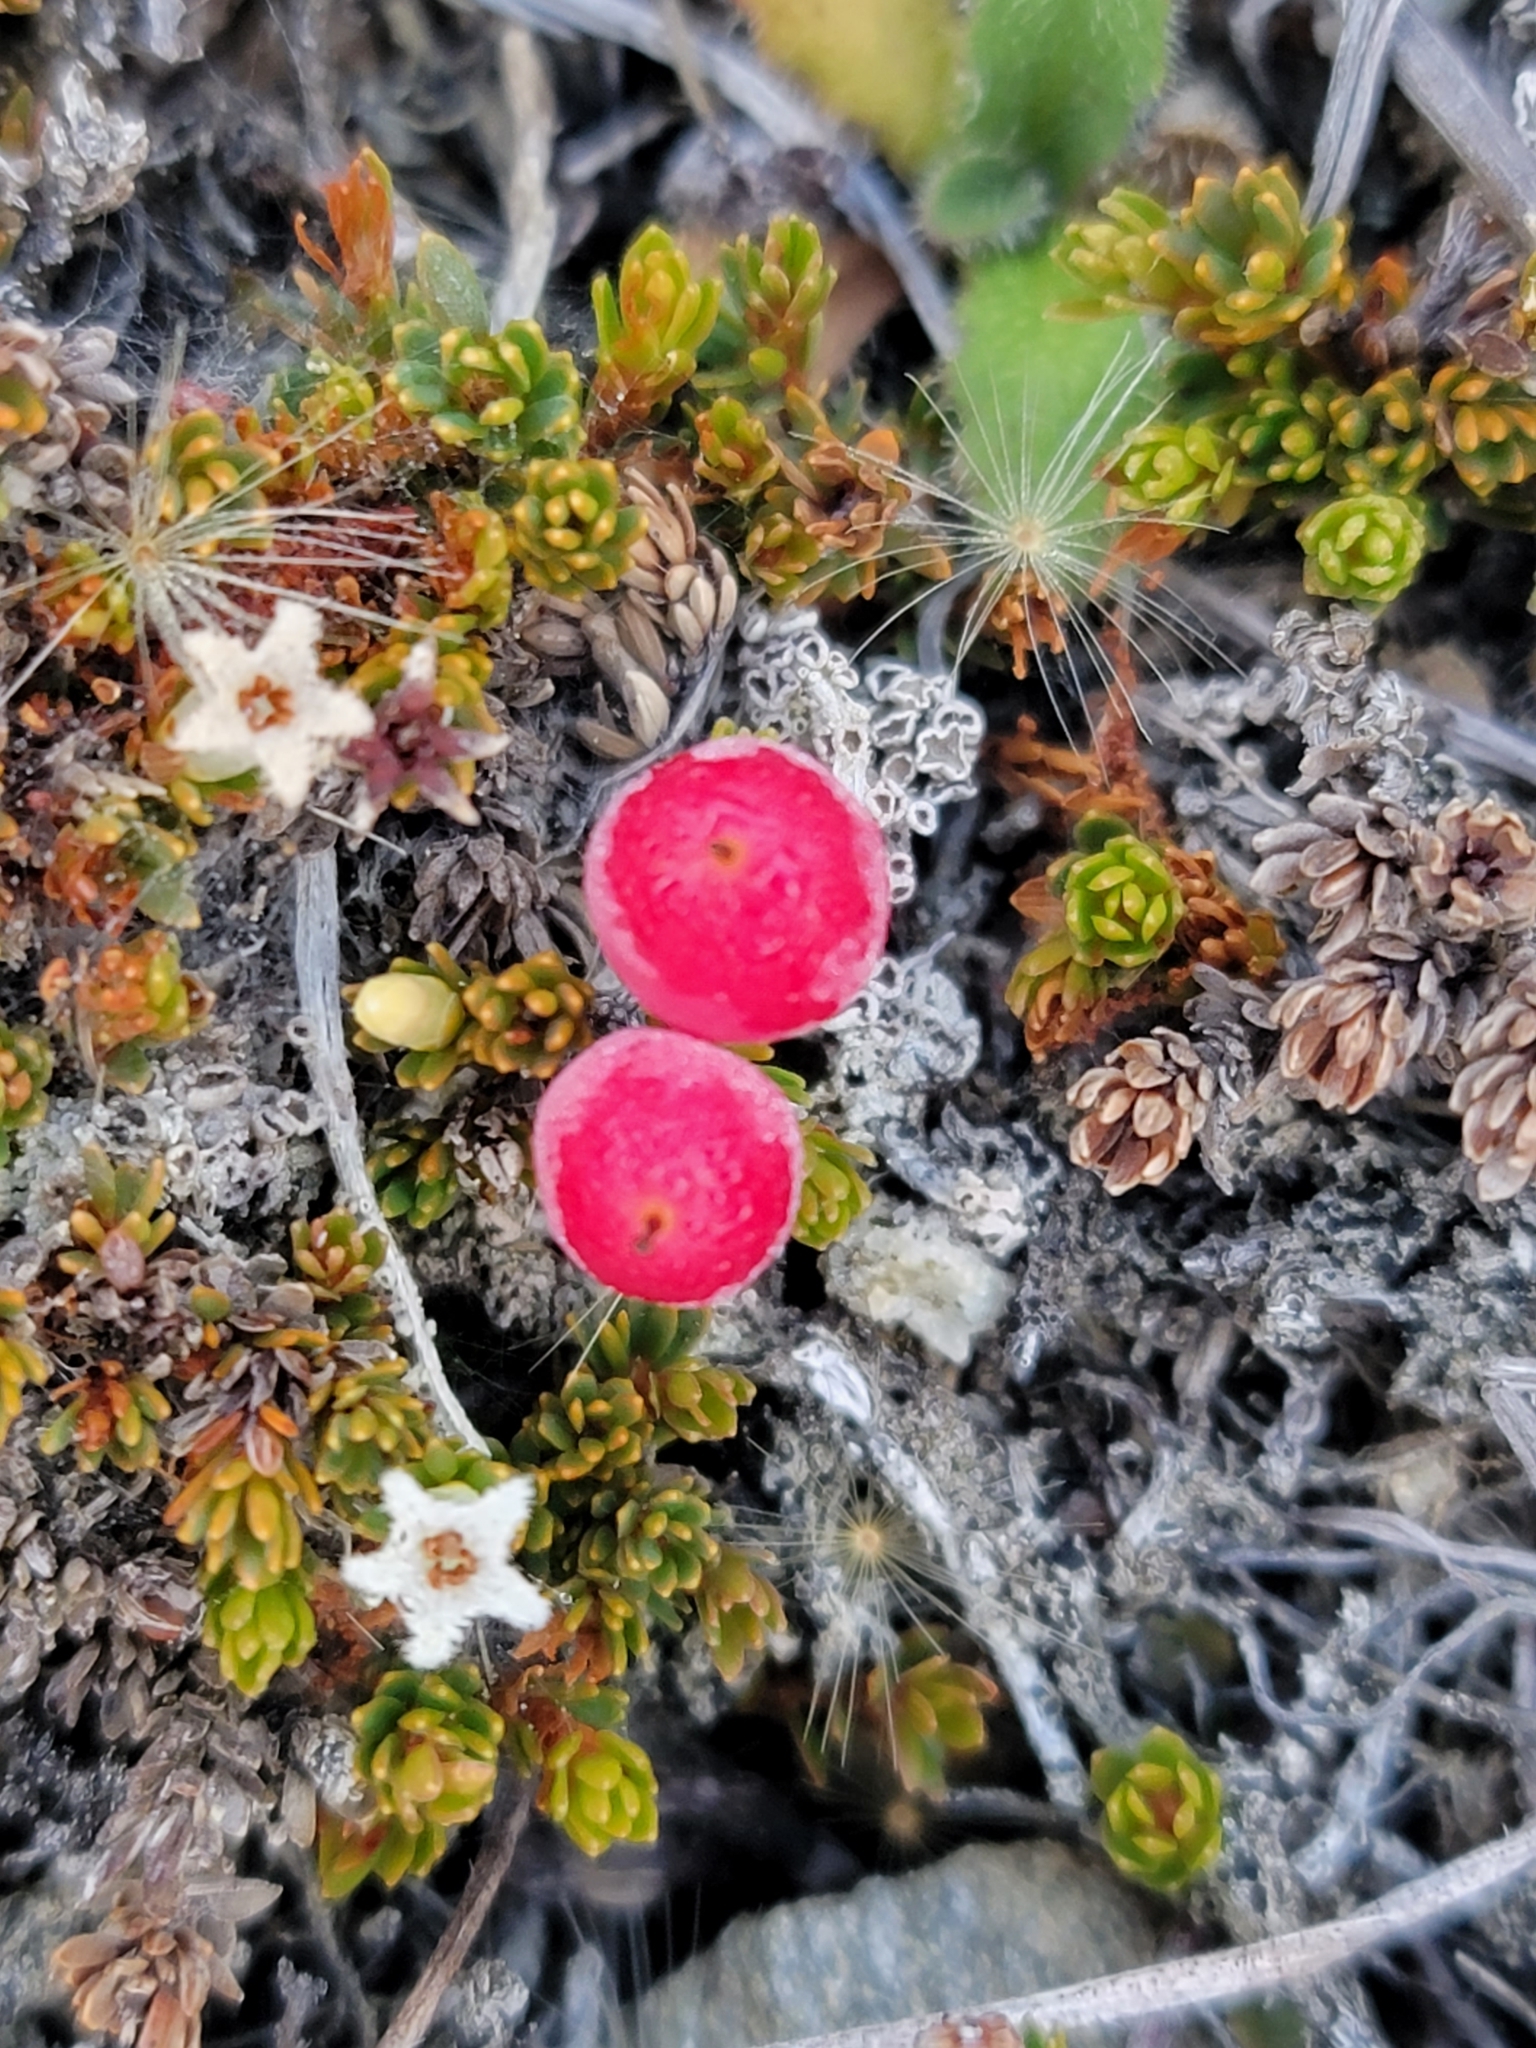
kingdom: Plantae
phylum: Tracheophyta
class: Magnoliopsida
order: Ericales
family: Ericaceae
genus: Pentachondra
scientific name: Pentachondra pumila
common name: Carpet-heath
